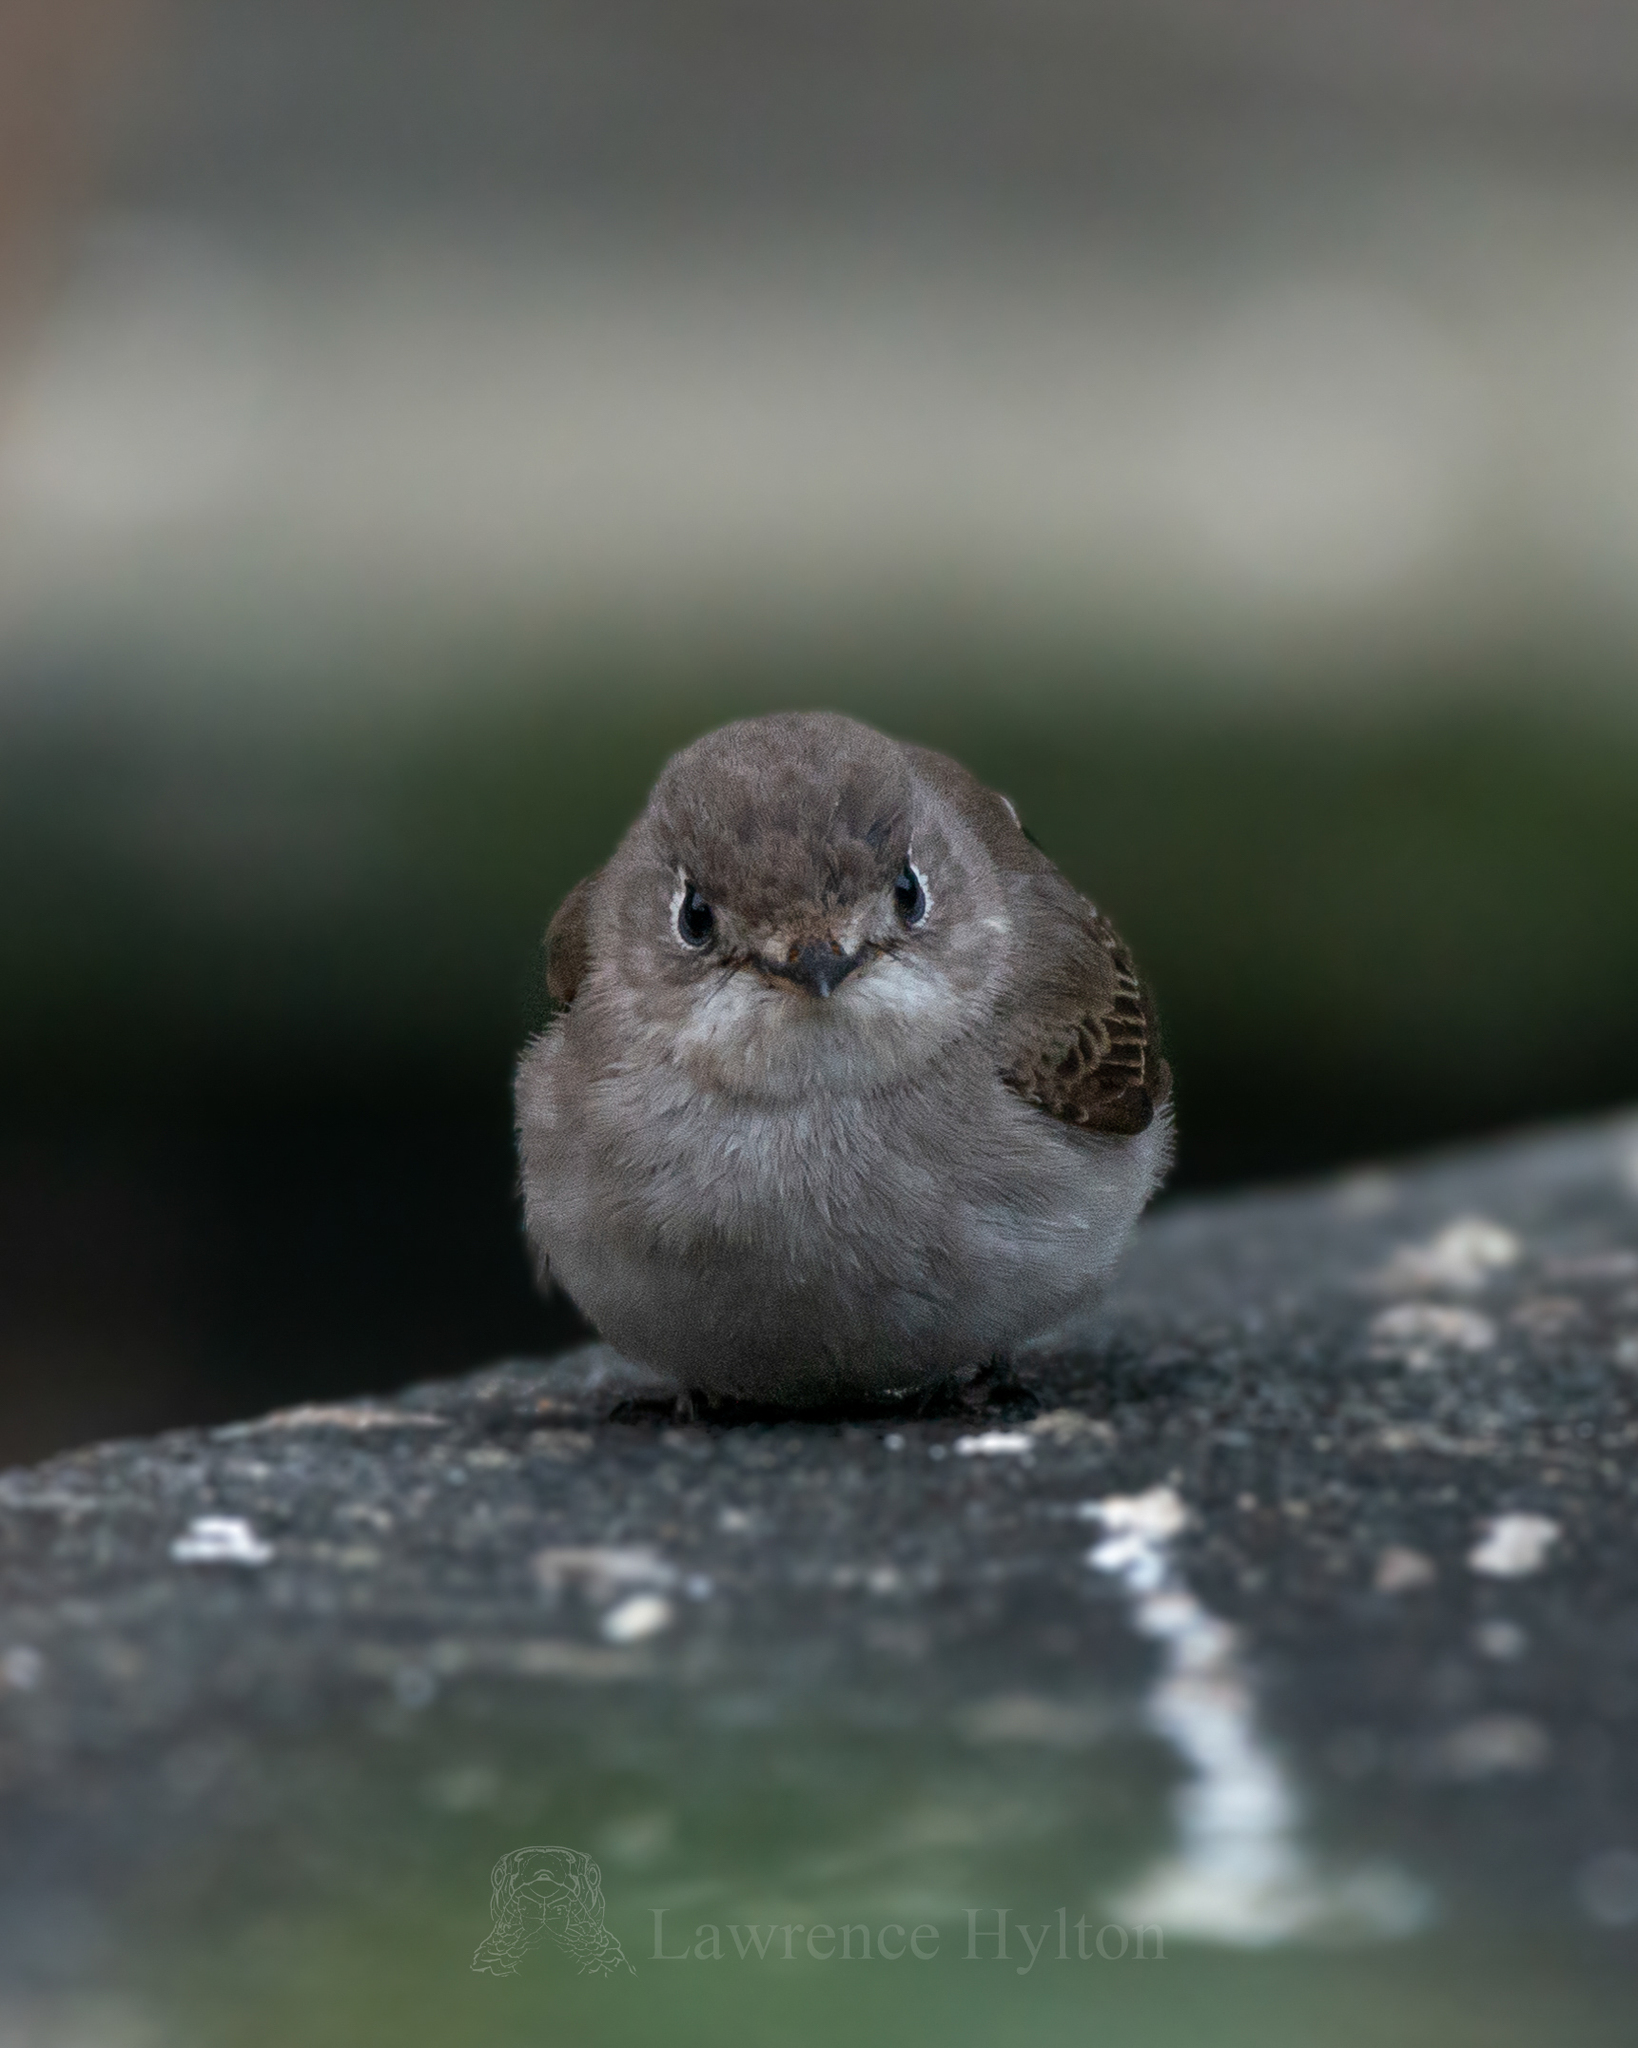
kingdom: Animalia
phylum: Chordata
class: Aves
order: Passeriformes
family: Muscicapidae
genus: Muscicapa
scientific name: Muscicapa latirostris
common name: Asian brown flycatcher
